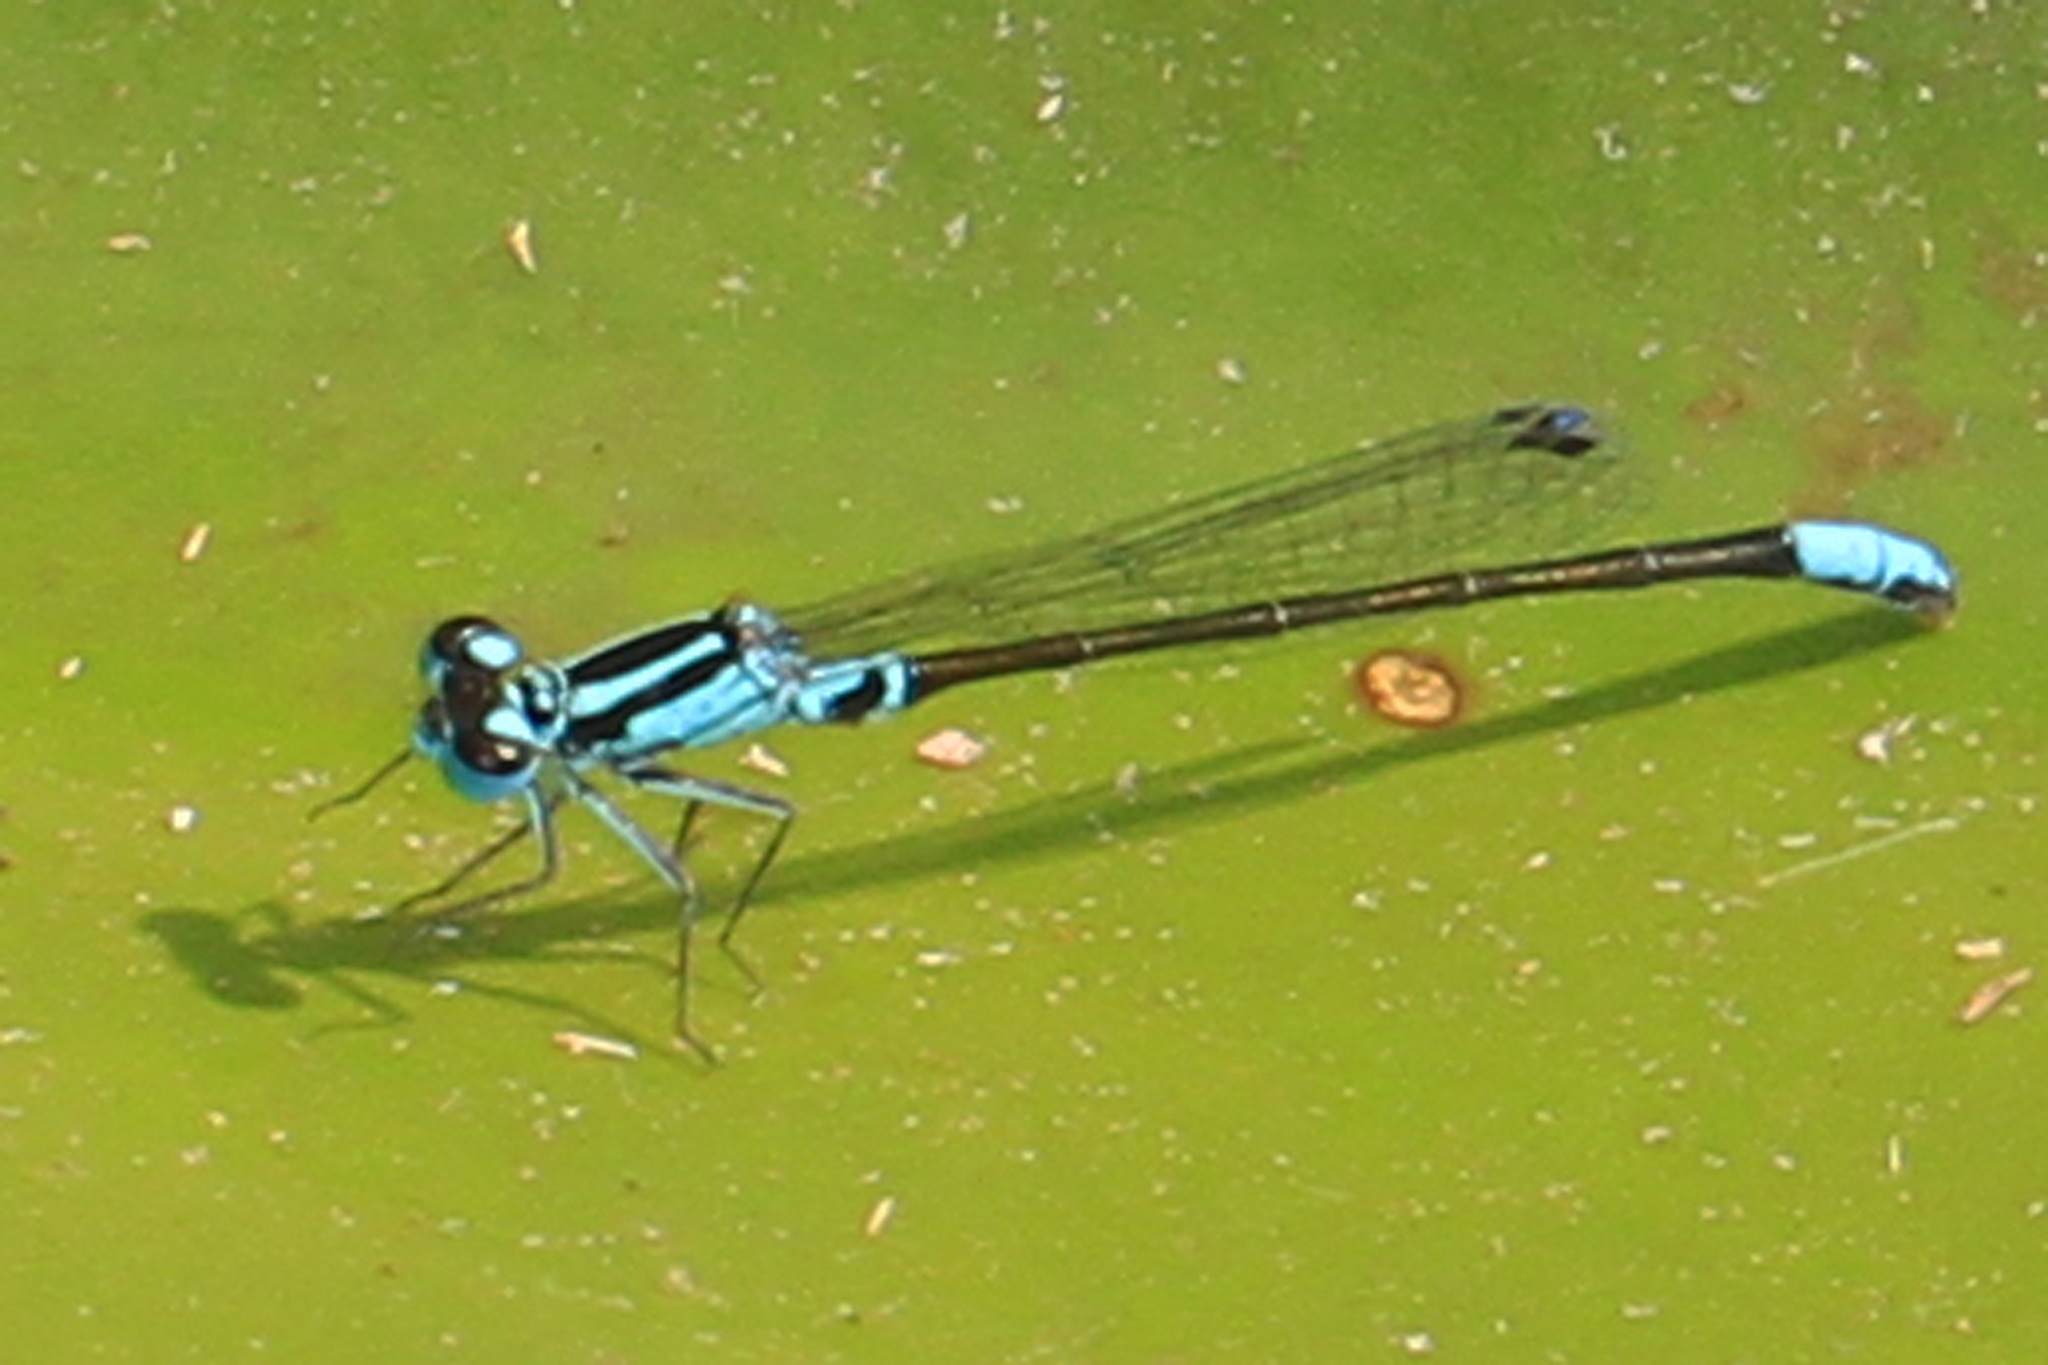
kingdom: Animalia
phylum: Arthropoda
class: Insecta
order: Odonata
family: Coenagrionidae
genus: Ischnura
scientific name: Ischnura kellicotti
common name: Lilypad forktail
